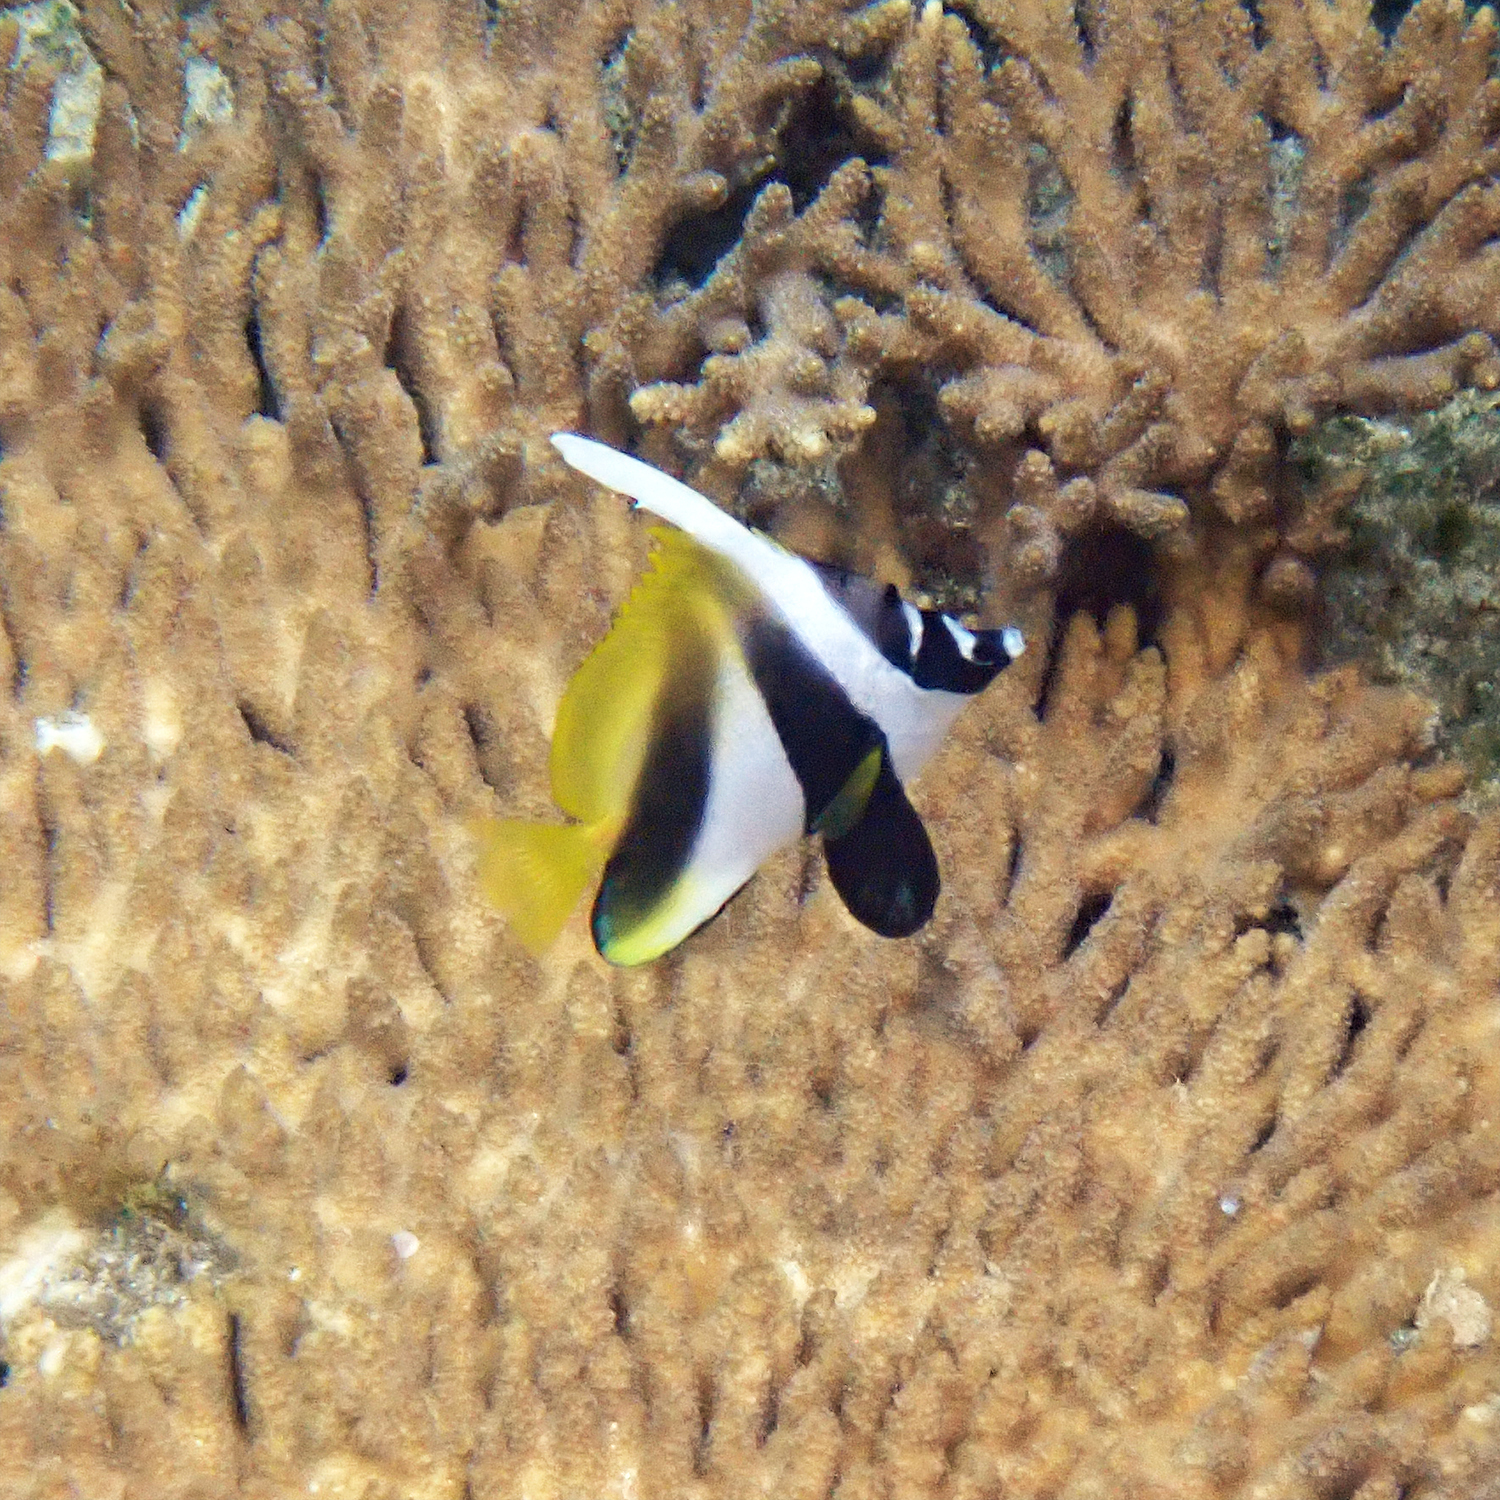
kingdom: Animalia
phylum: Chordata
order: Perciformes
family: Chaetodontidae
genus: Heniochus
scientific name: Heniochus monoceros
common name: Masked bannerfish
